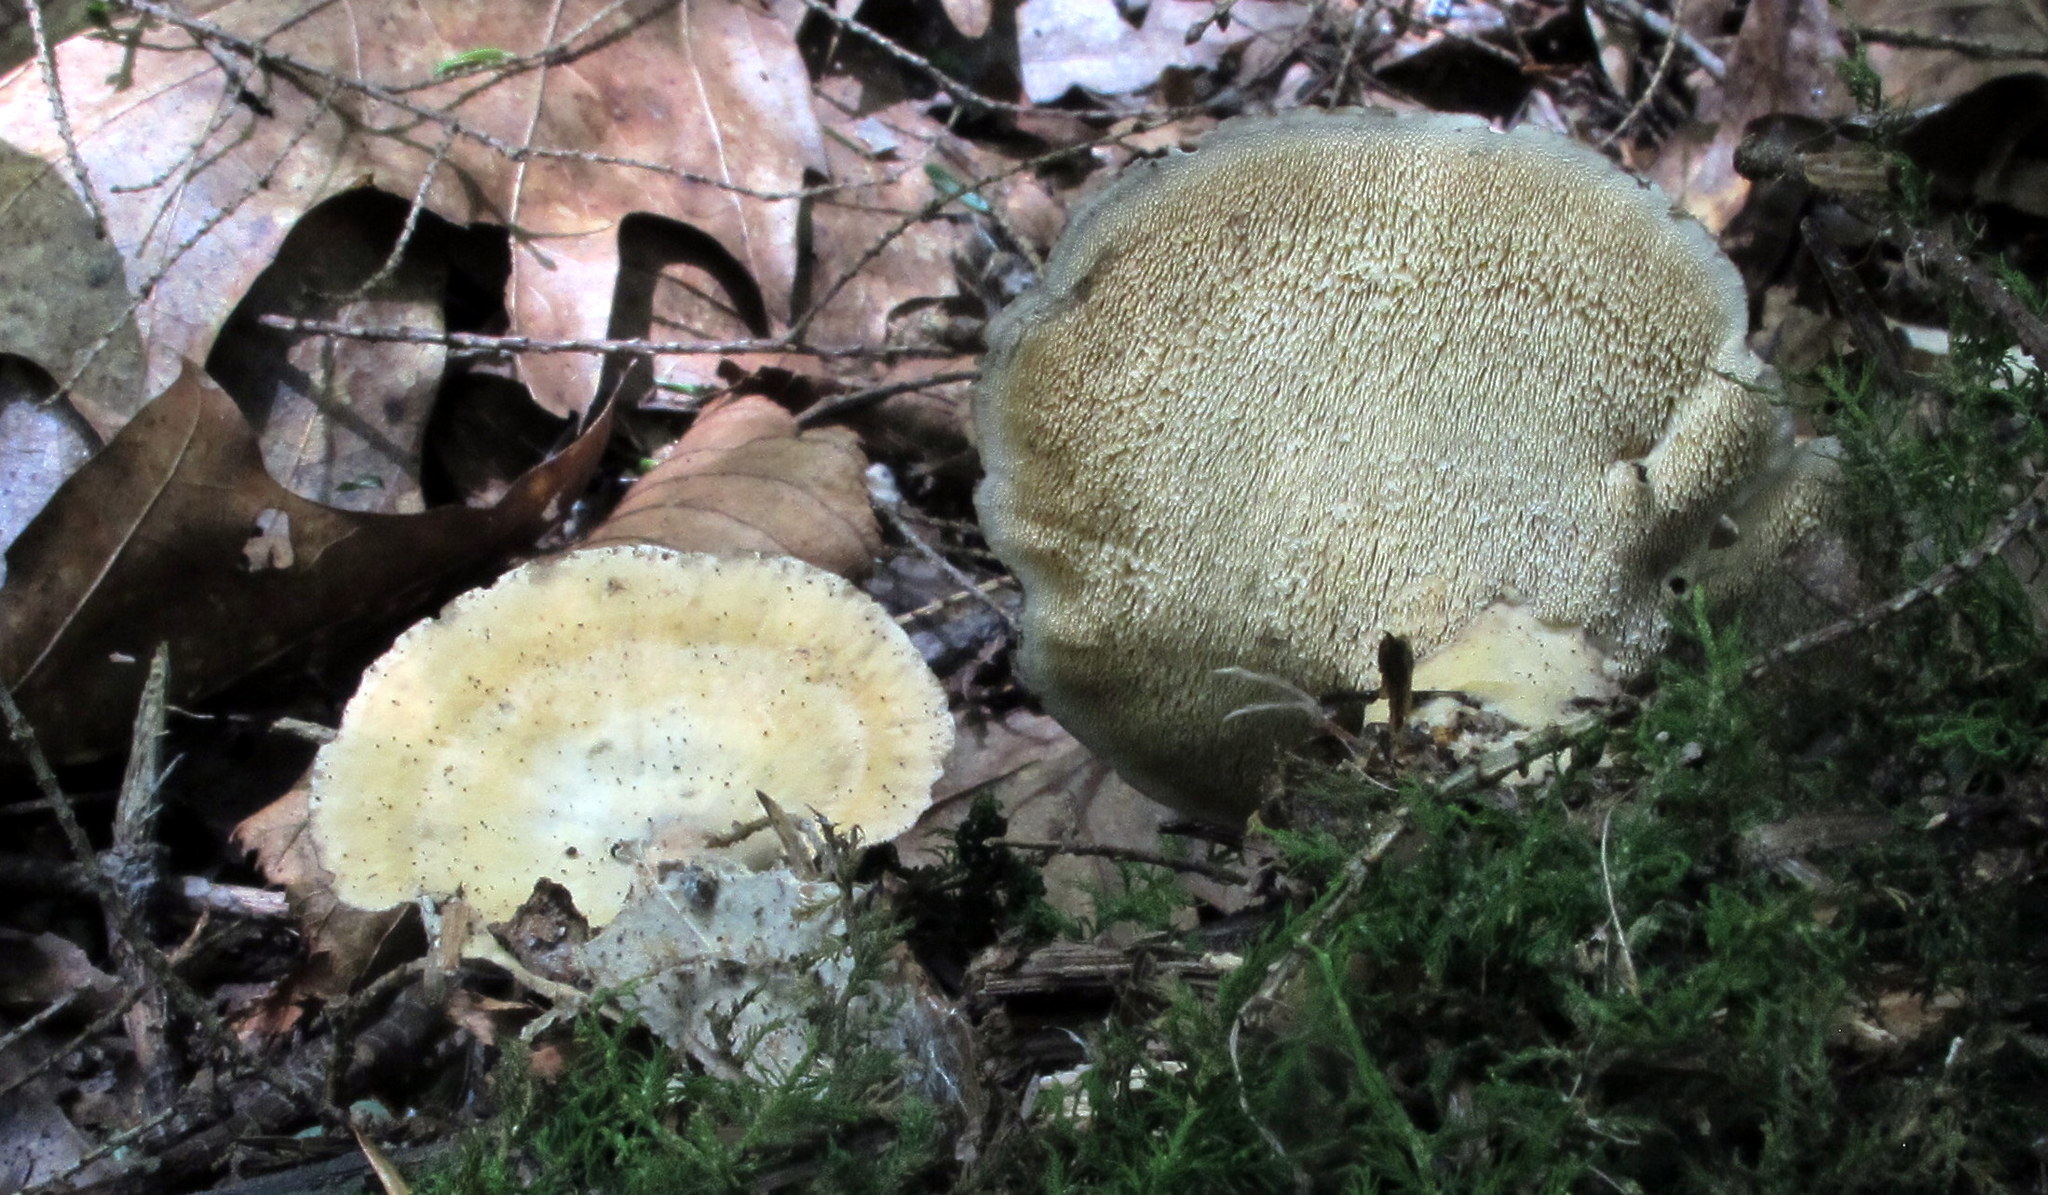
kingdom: Fungi
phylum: Basidiomycota
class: Agaricomycetes
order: Polyporales
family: Steccherinaceae
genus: Mycorrhaphium
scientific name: Mycorrhaphium adustum
